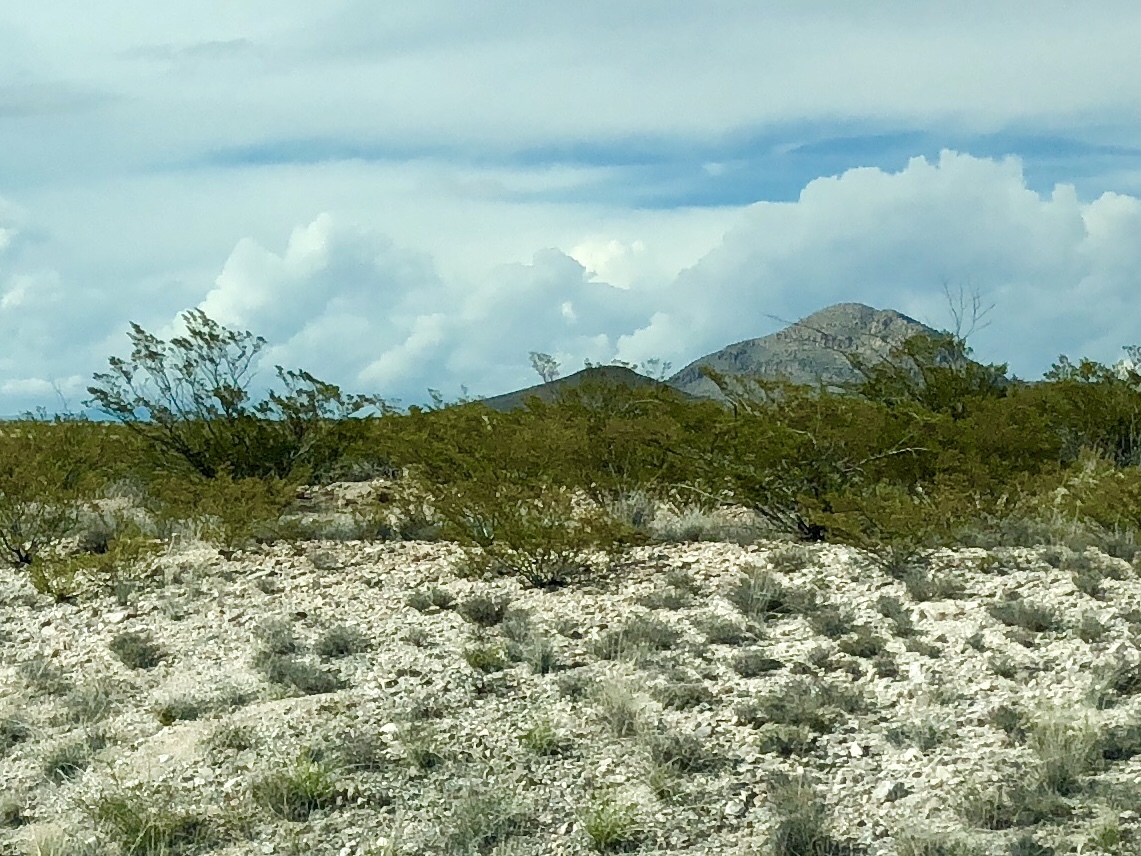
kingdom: Plantae
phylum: Tracheophyta
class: Magnoliopsida
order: Zygophyllales
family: Zygophyllaceae
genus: Larrea
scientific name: Larrea tridentata
